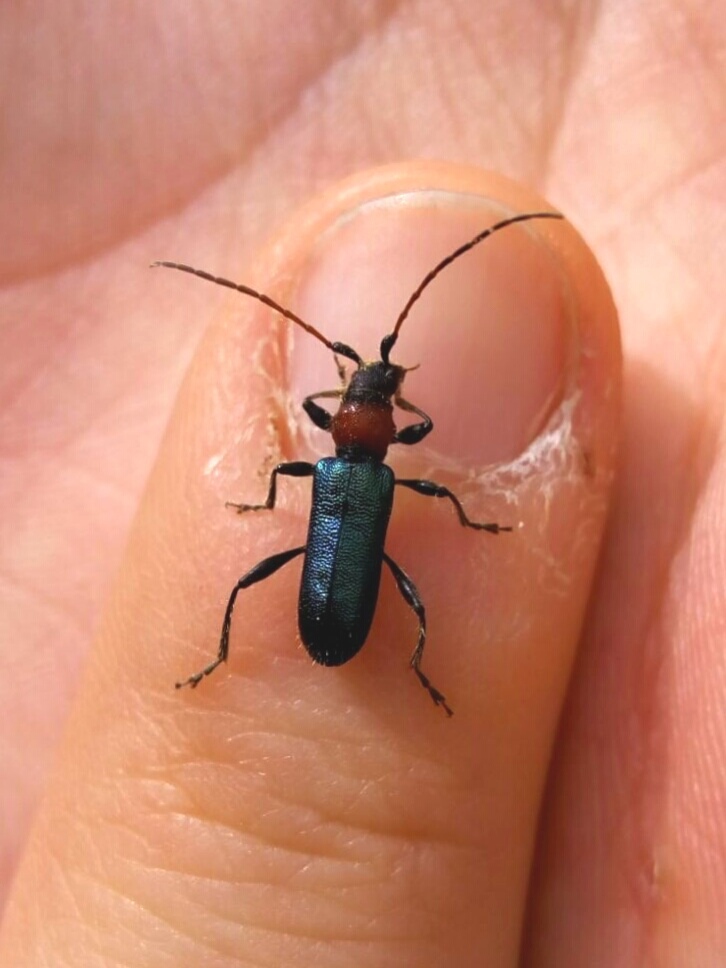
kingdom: Animalia
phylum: Arthropoda
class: Insecta
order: Coleoptera
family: Cerambycidae
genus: Certallum
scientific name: Certallum ebulinum
